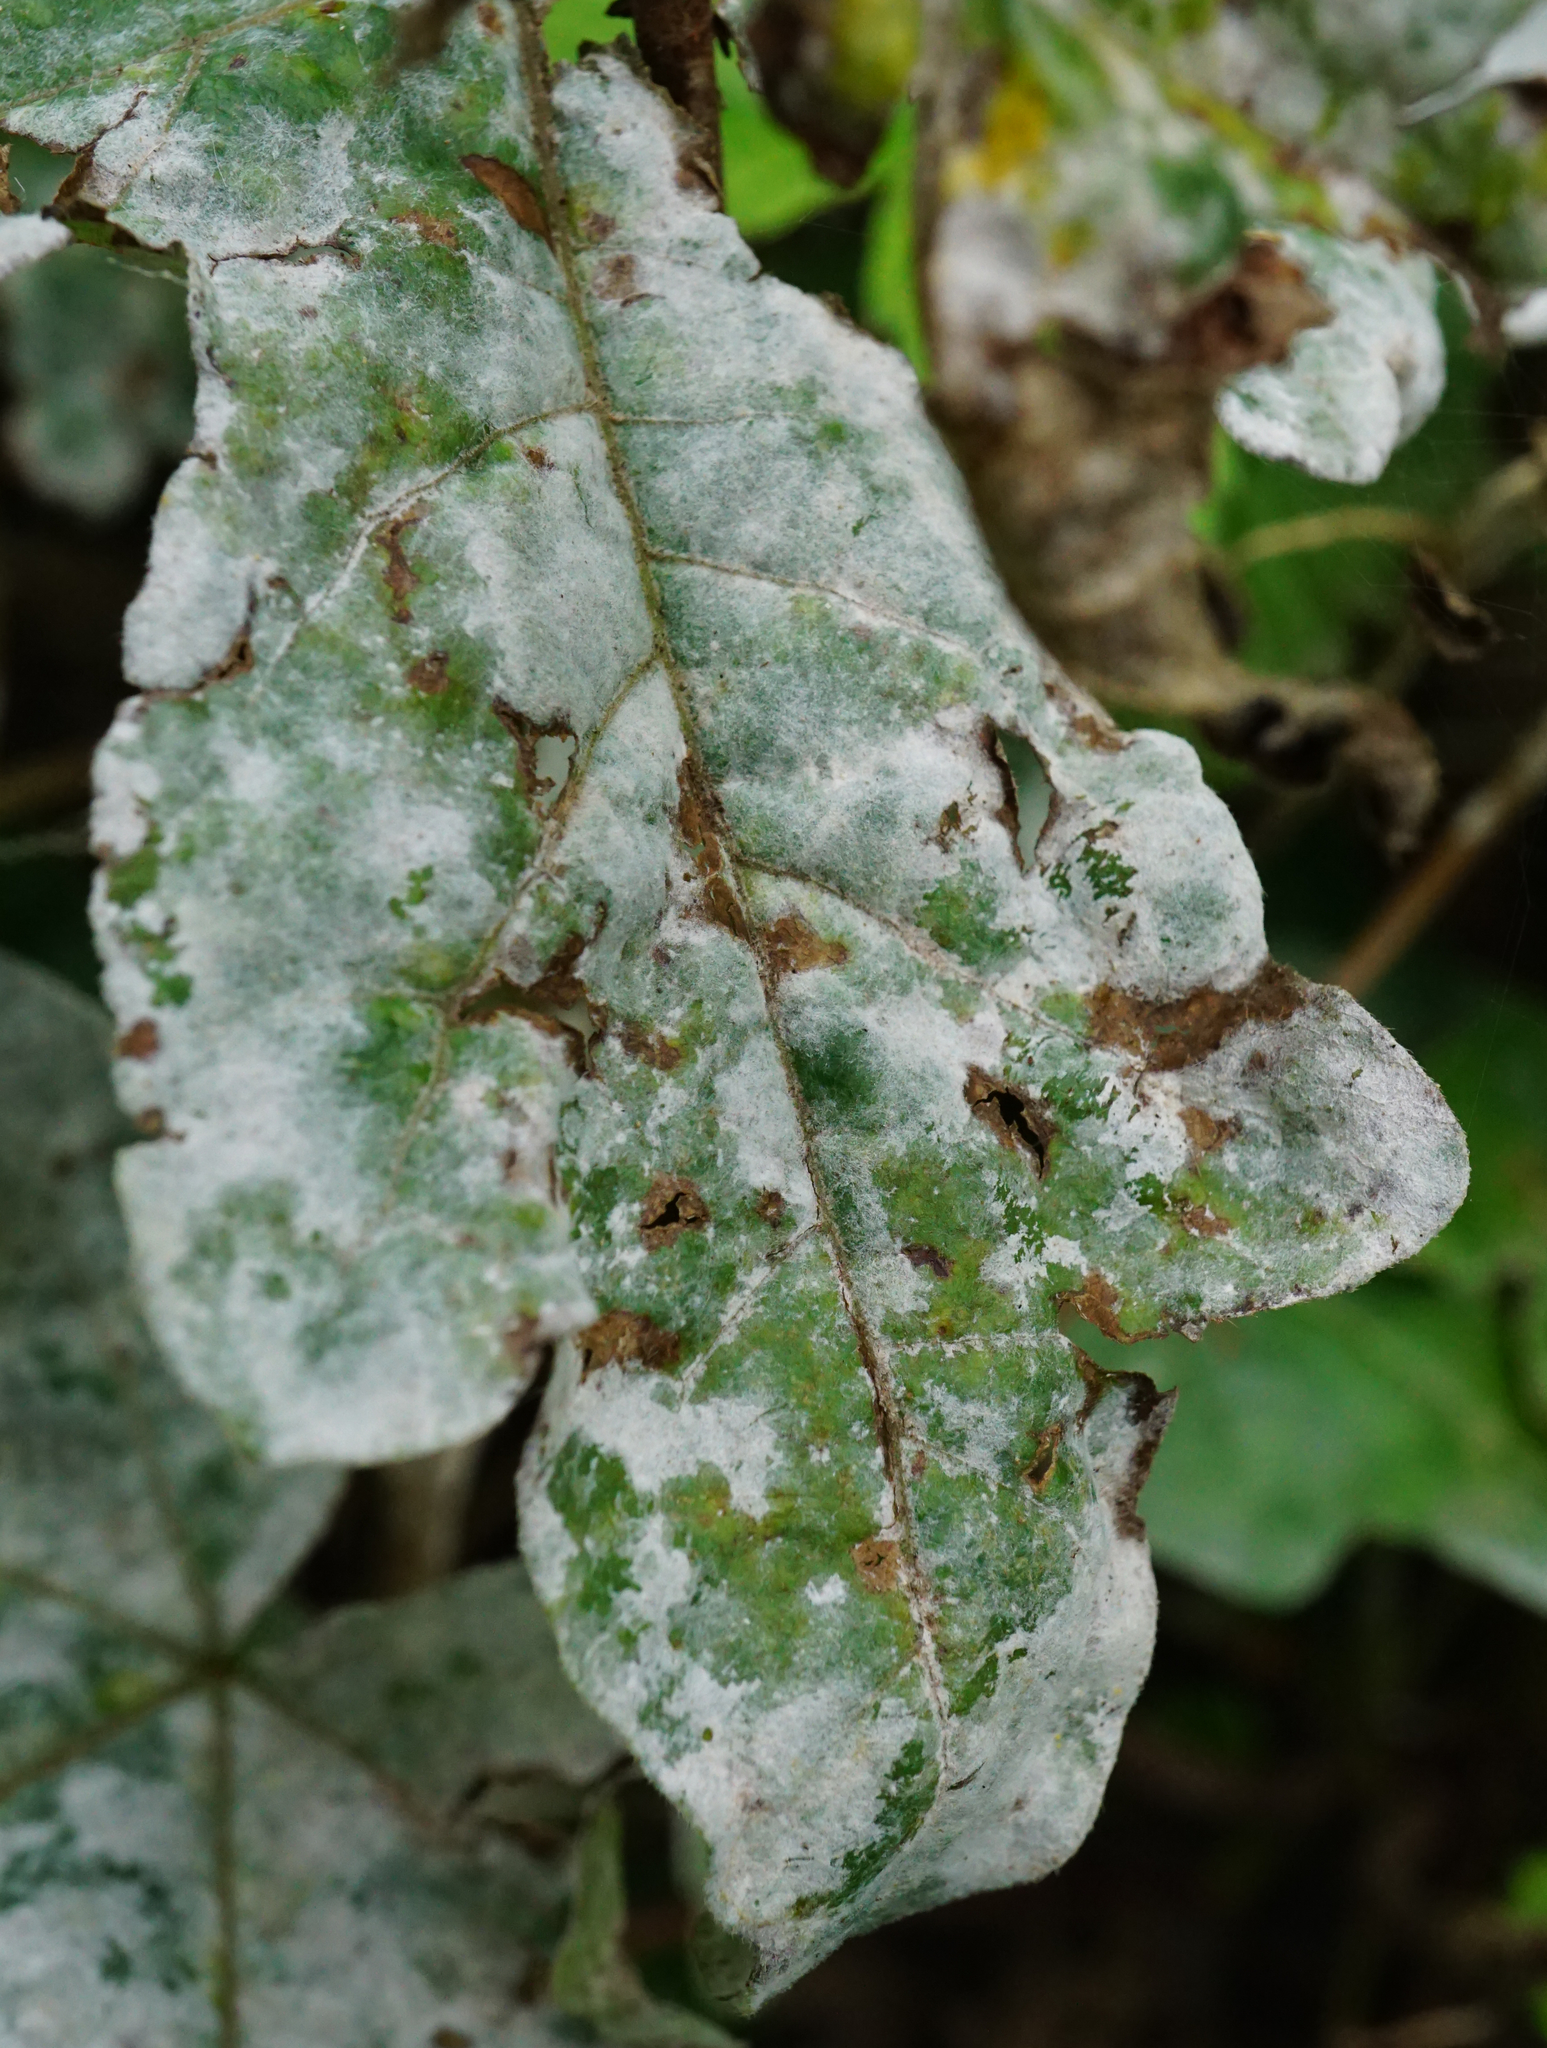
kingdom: Fungi
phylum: Ascomycota
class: Leotiomycetes
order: Helotiales
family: Erysiphaceae
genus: Sawadaea
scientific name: Sawadaea bicornis
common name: Maple mildew
